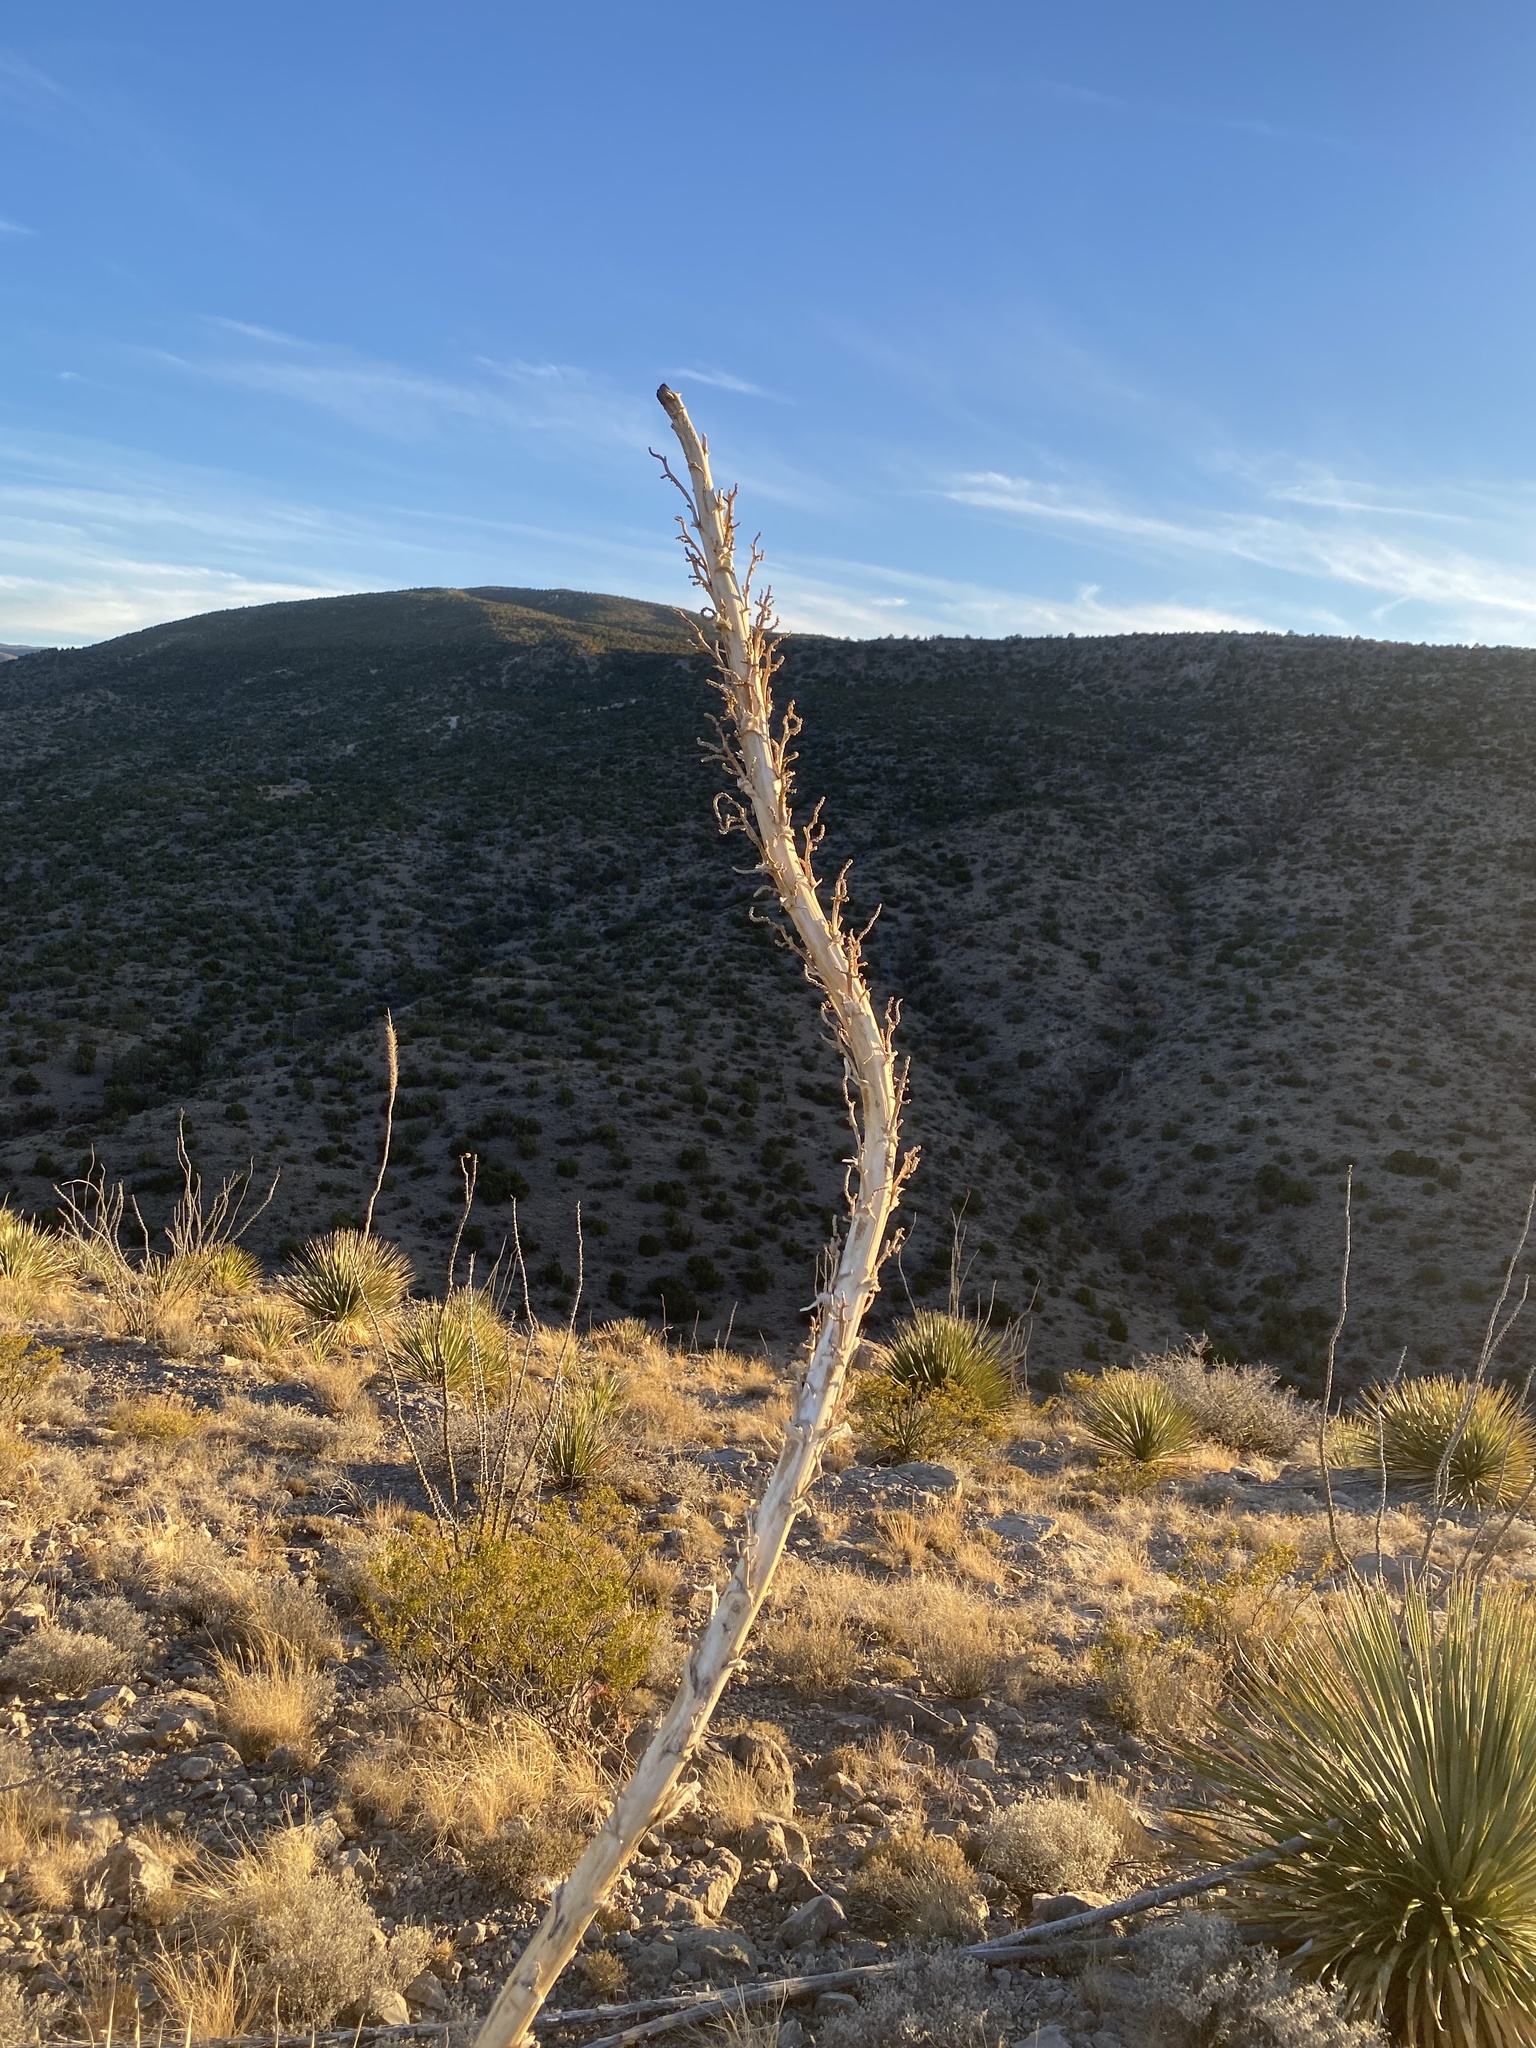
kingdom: Plantae
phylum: Tracheophyta
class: Liliopsida
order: Asparagales
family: Asparagaceae
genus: Dasylirion
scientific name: Dasylirion wheeleri
